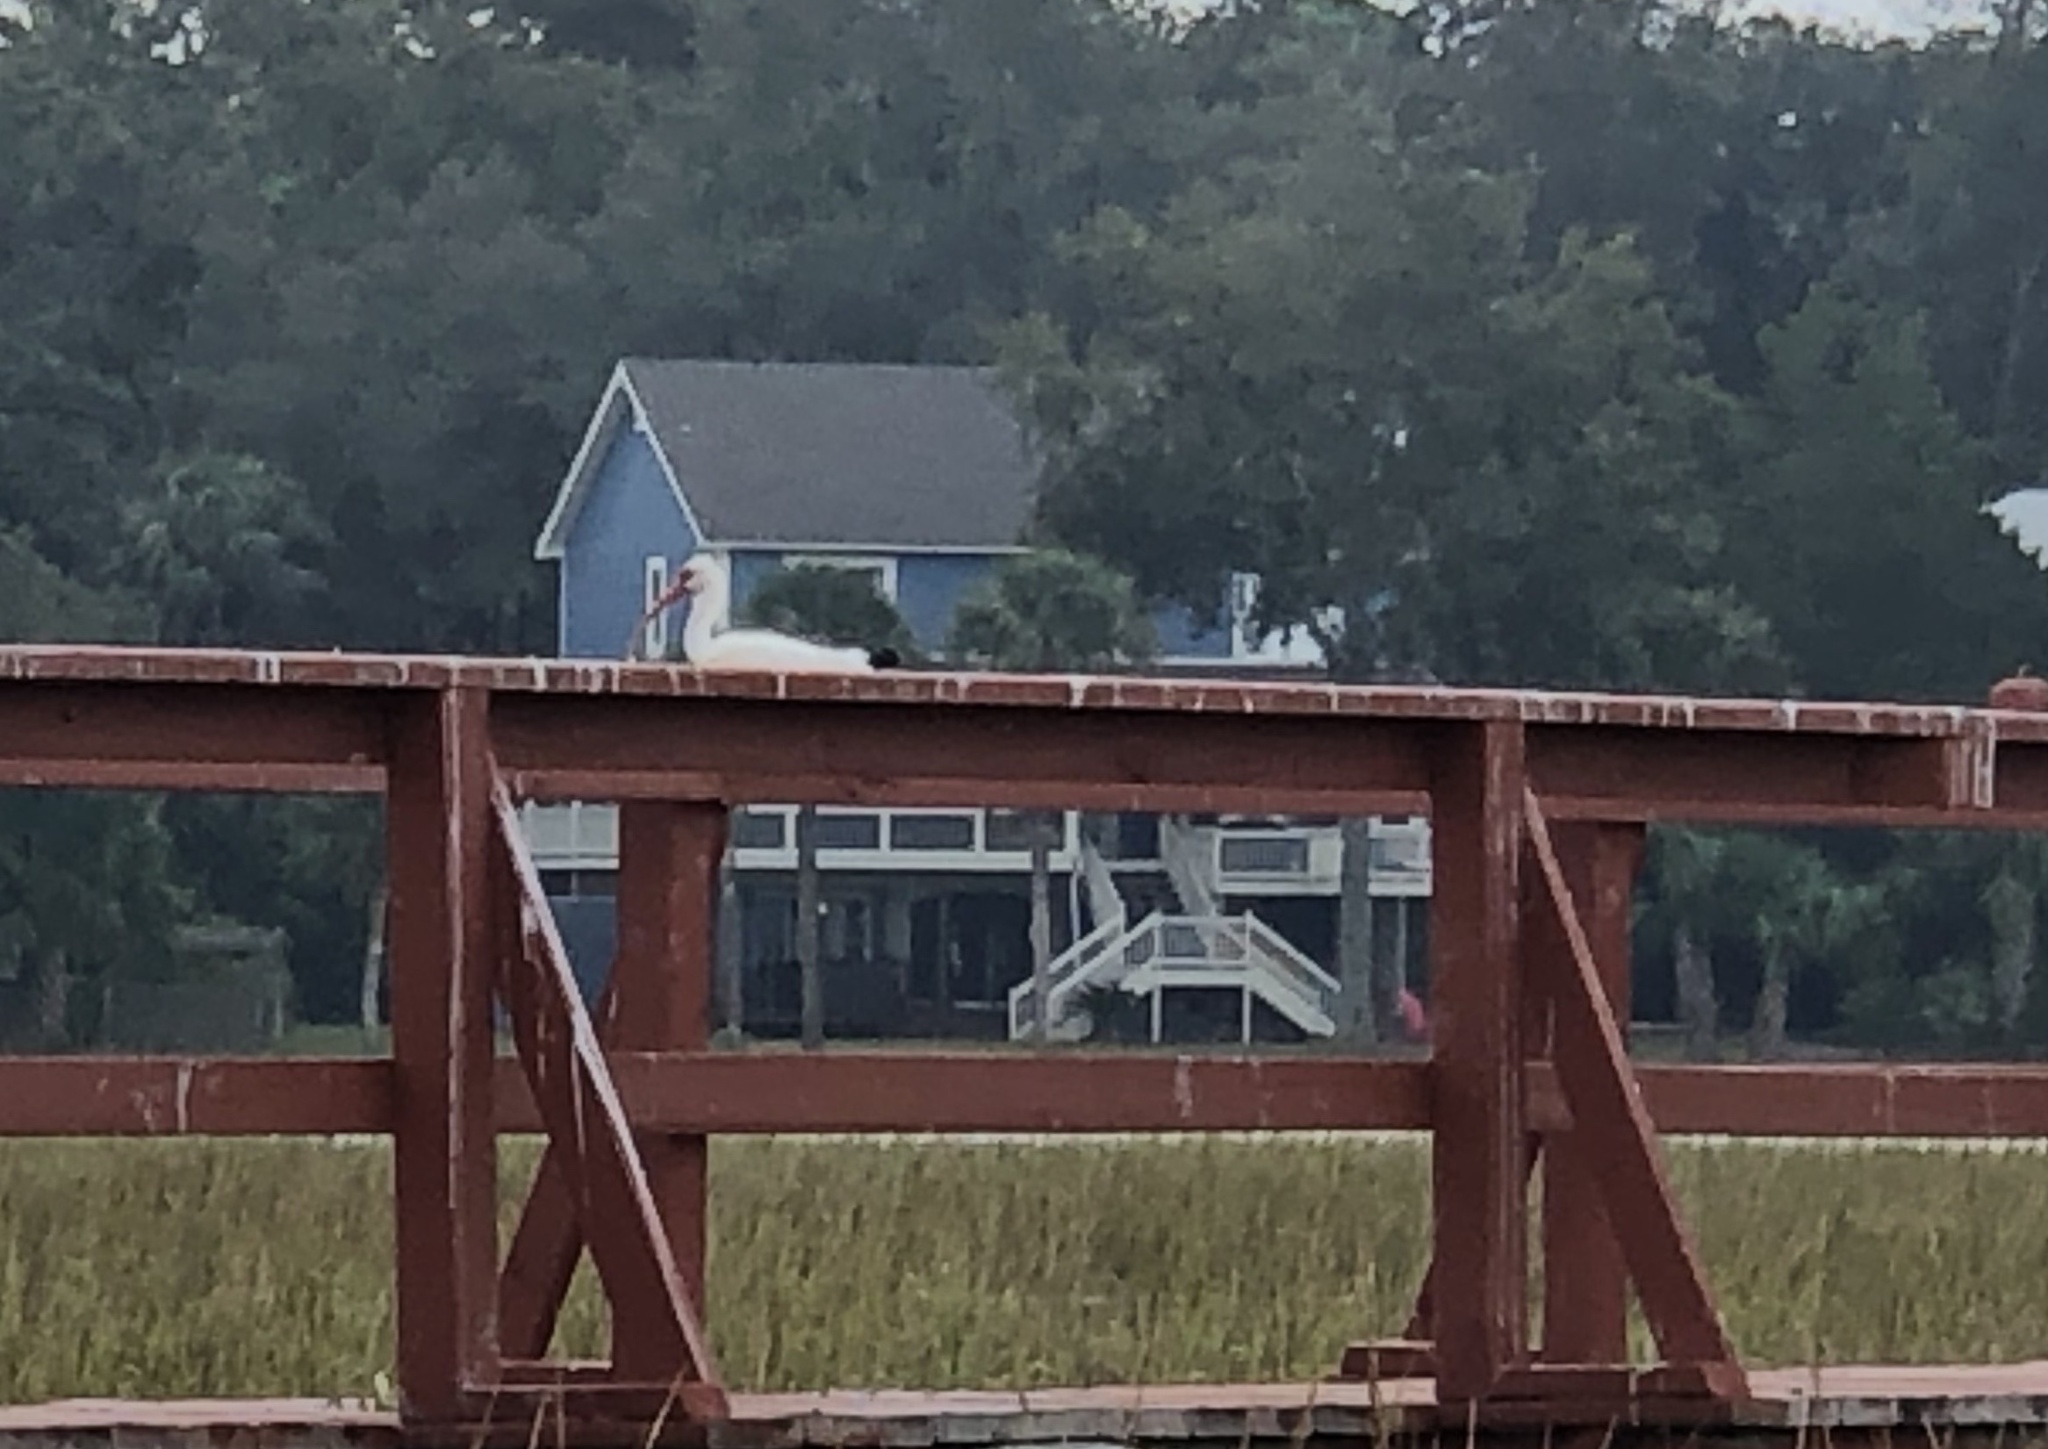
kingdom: Animalia
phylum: Chordata
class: Aves
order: Pelecaniformes
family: Threskiornithidae
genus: Eudocimus
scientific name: Eudocimus albus
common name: White ibis
